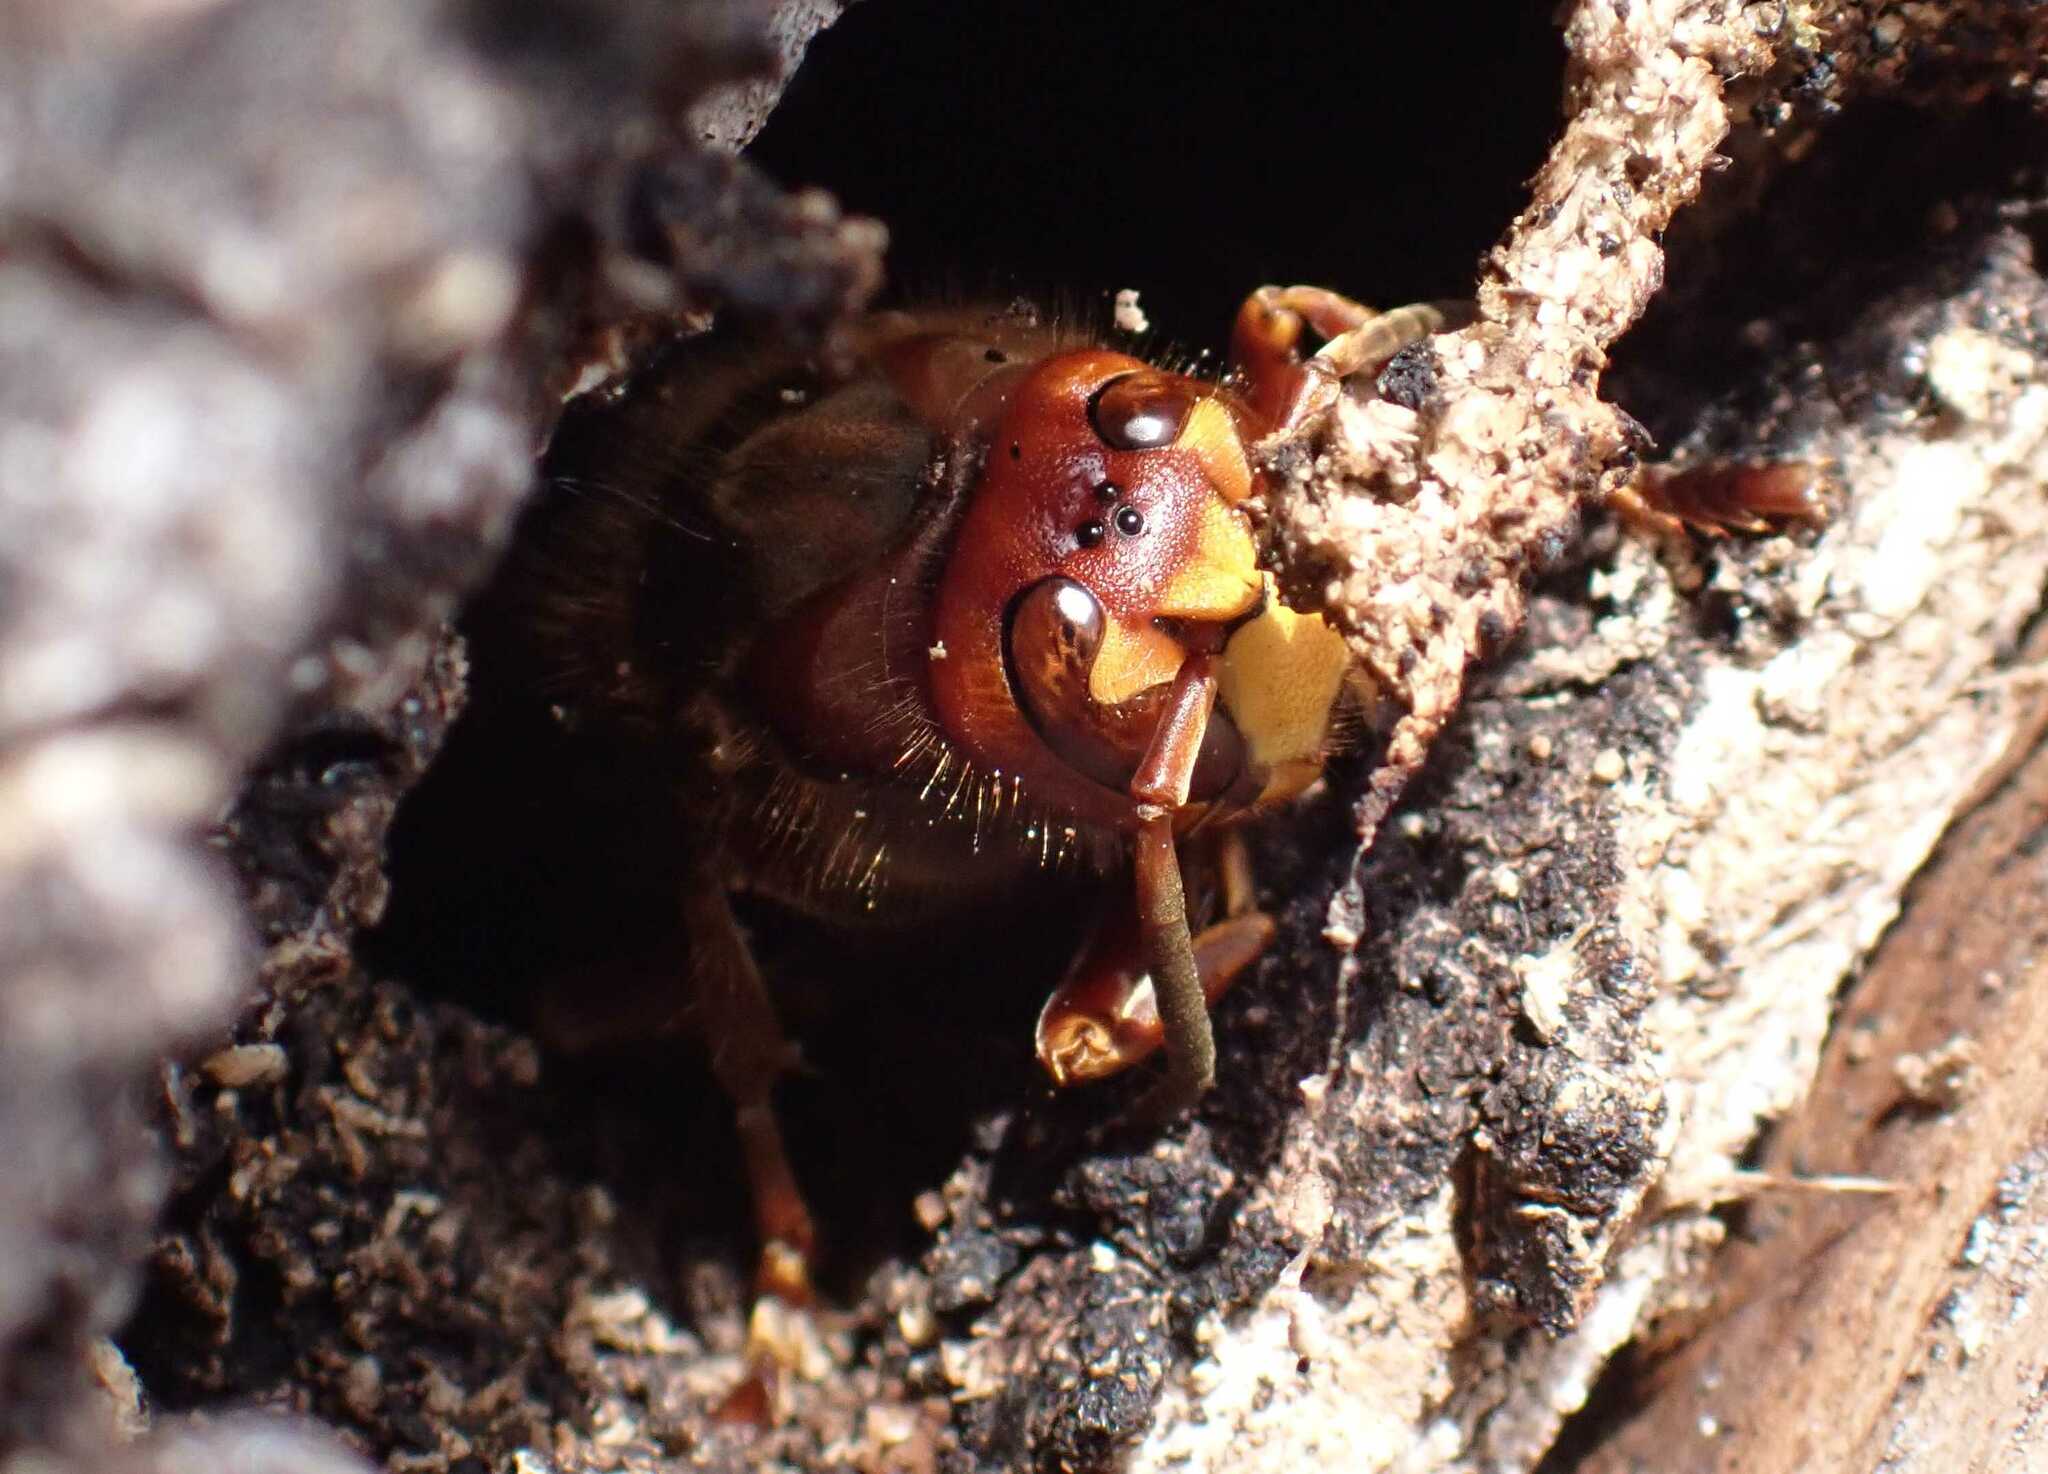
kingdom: Animalia
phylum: Arthropoda
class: Insecta
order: Hymenoptera
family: Vespidae
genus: Vespa
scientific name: Vespa crabro
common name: Hornet
